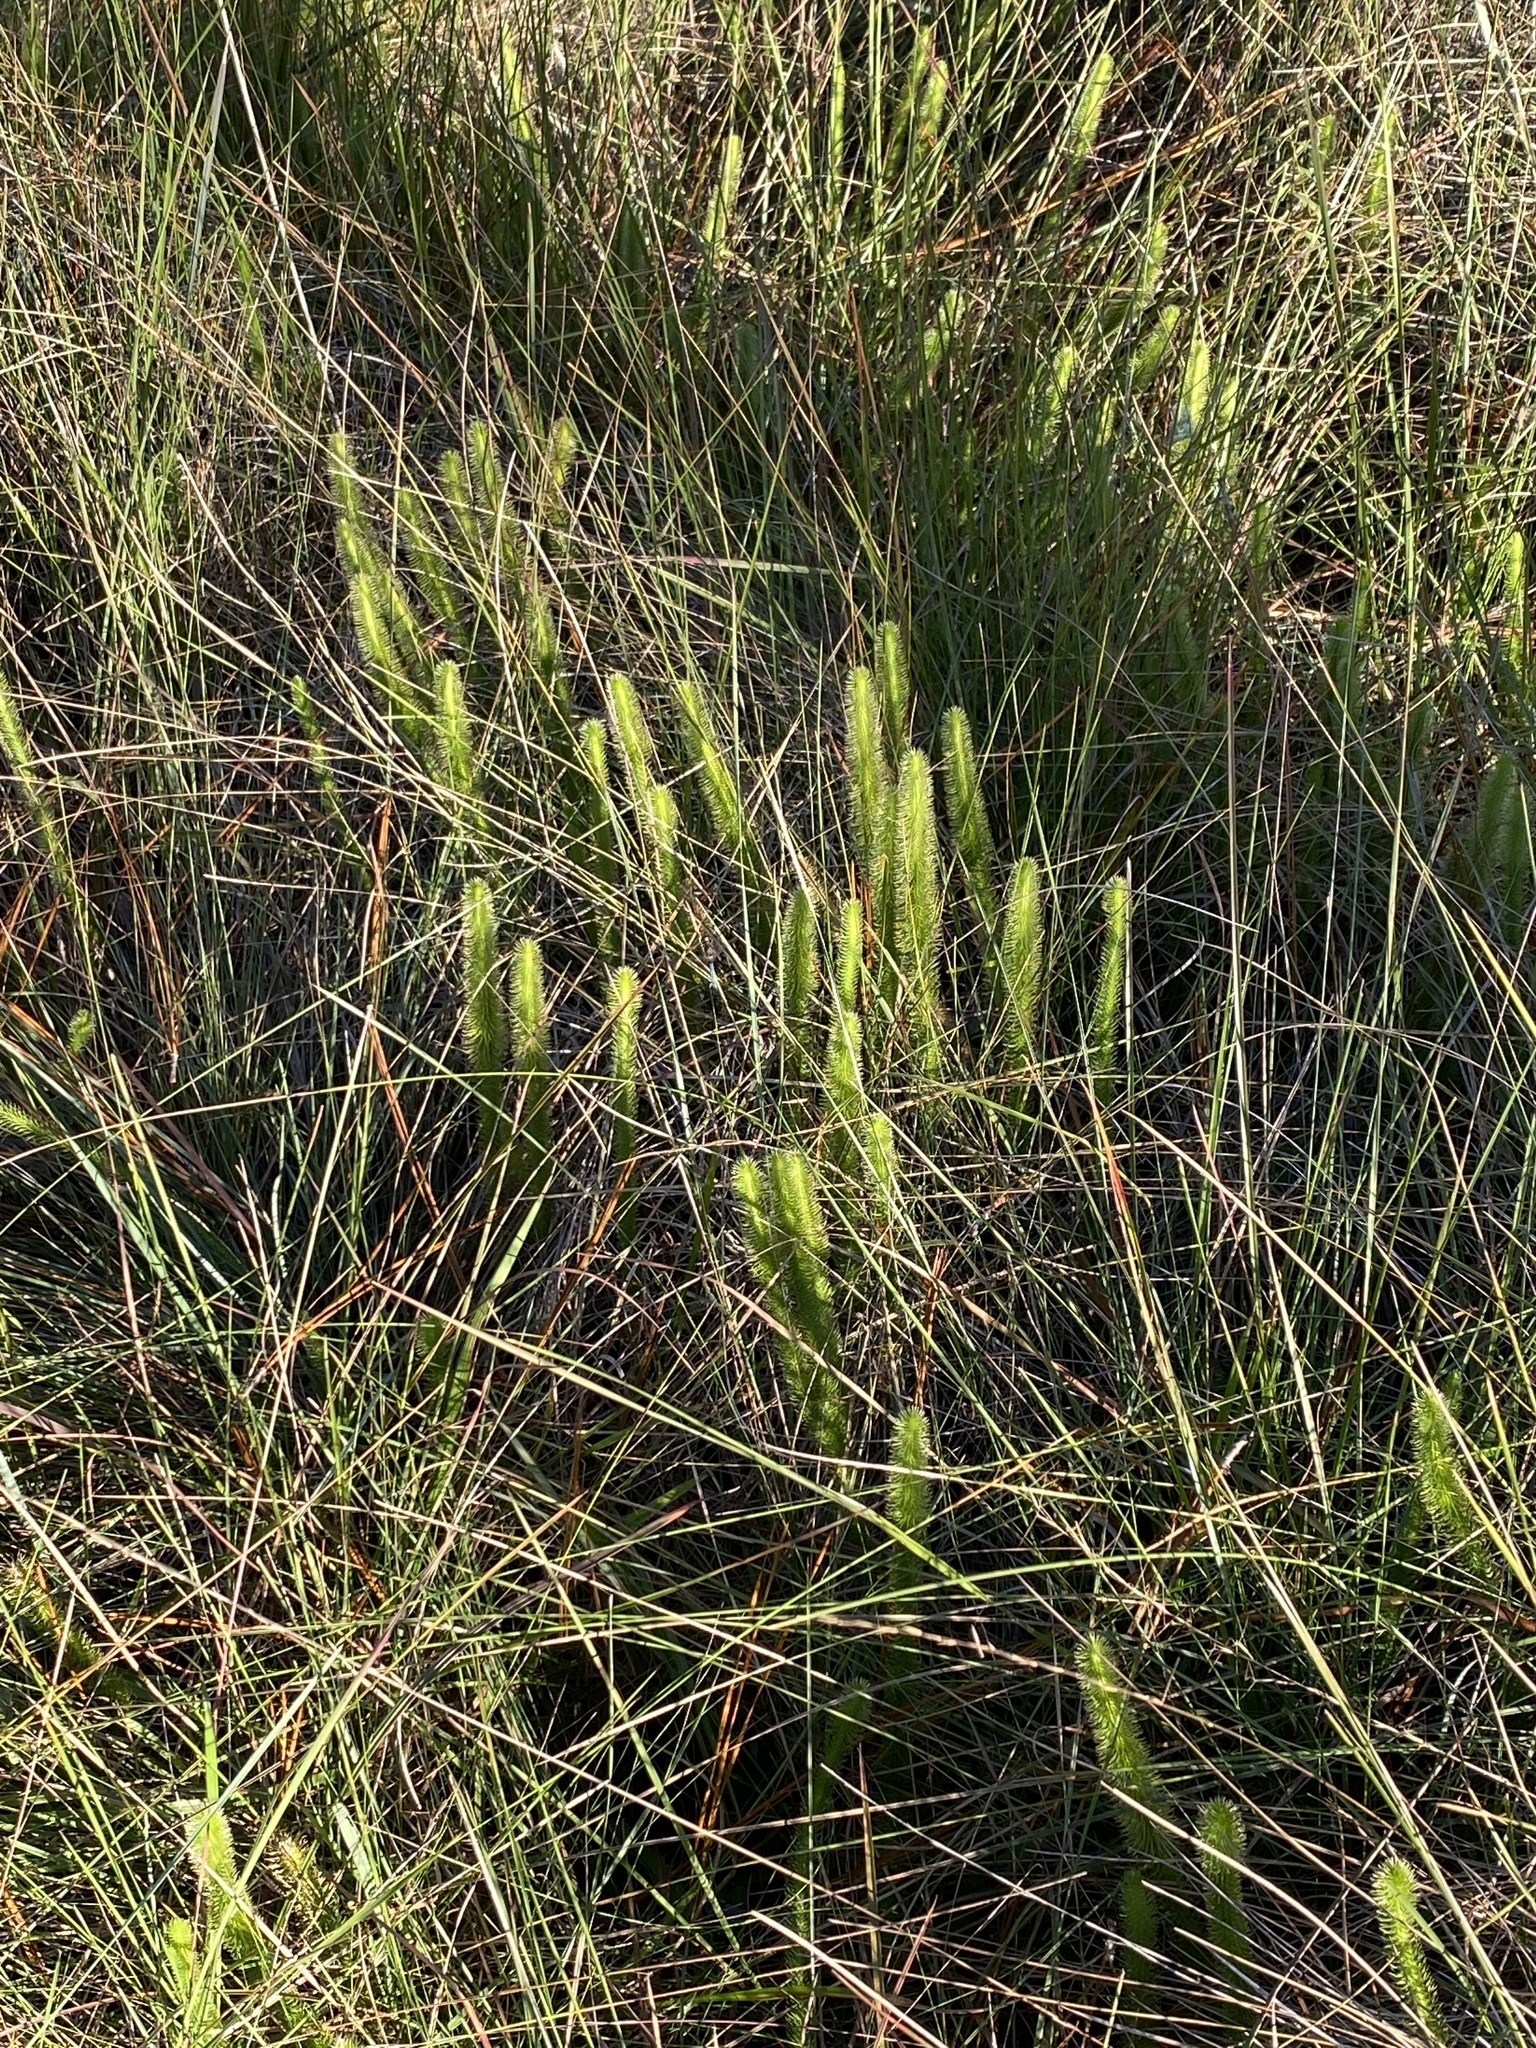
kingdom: Plantae
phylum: Tracheophyta
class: Lycopodiopsida
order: Lycopodiales
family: Lycopodiaceae
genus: Lycopodiella
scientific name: Lycopodiella alopecuroides
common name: Foxtail clubmoss
